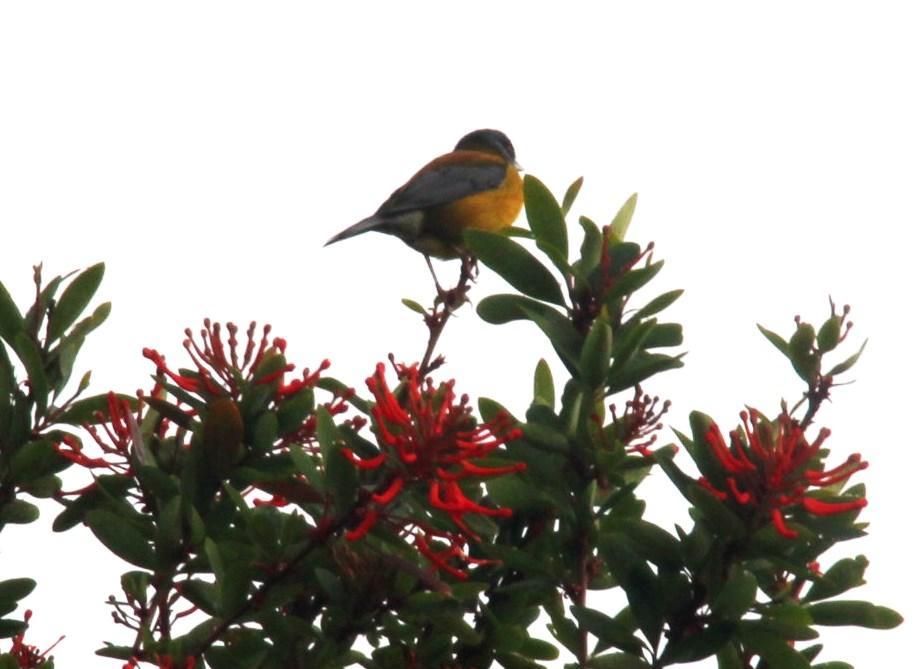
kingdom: Animalia
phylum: Chordata
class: Aves
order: Passeriformes
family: Thraupidae
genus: Phrygilus
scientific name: Phrygilus patagonicus
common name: Patagonian sierra finch
